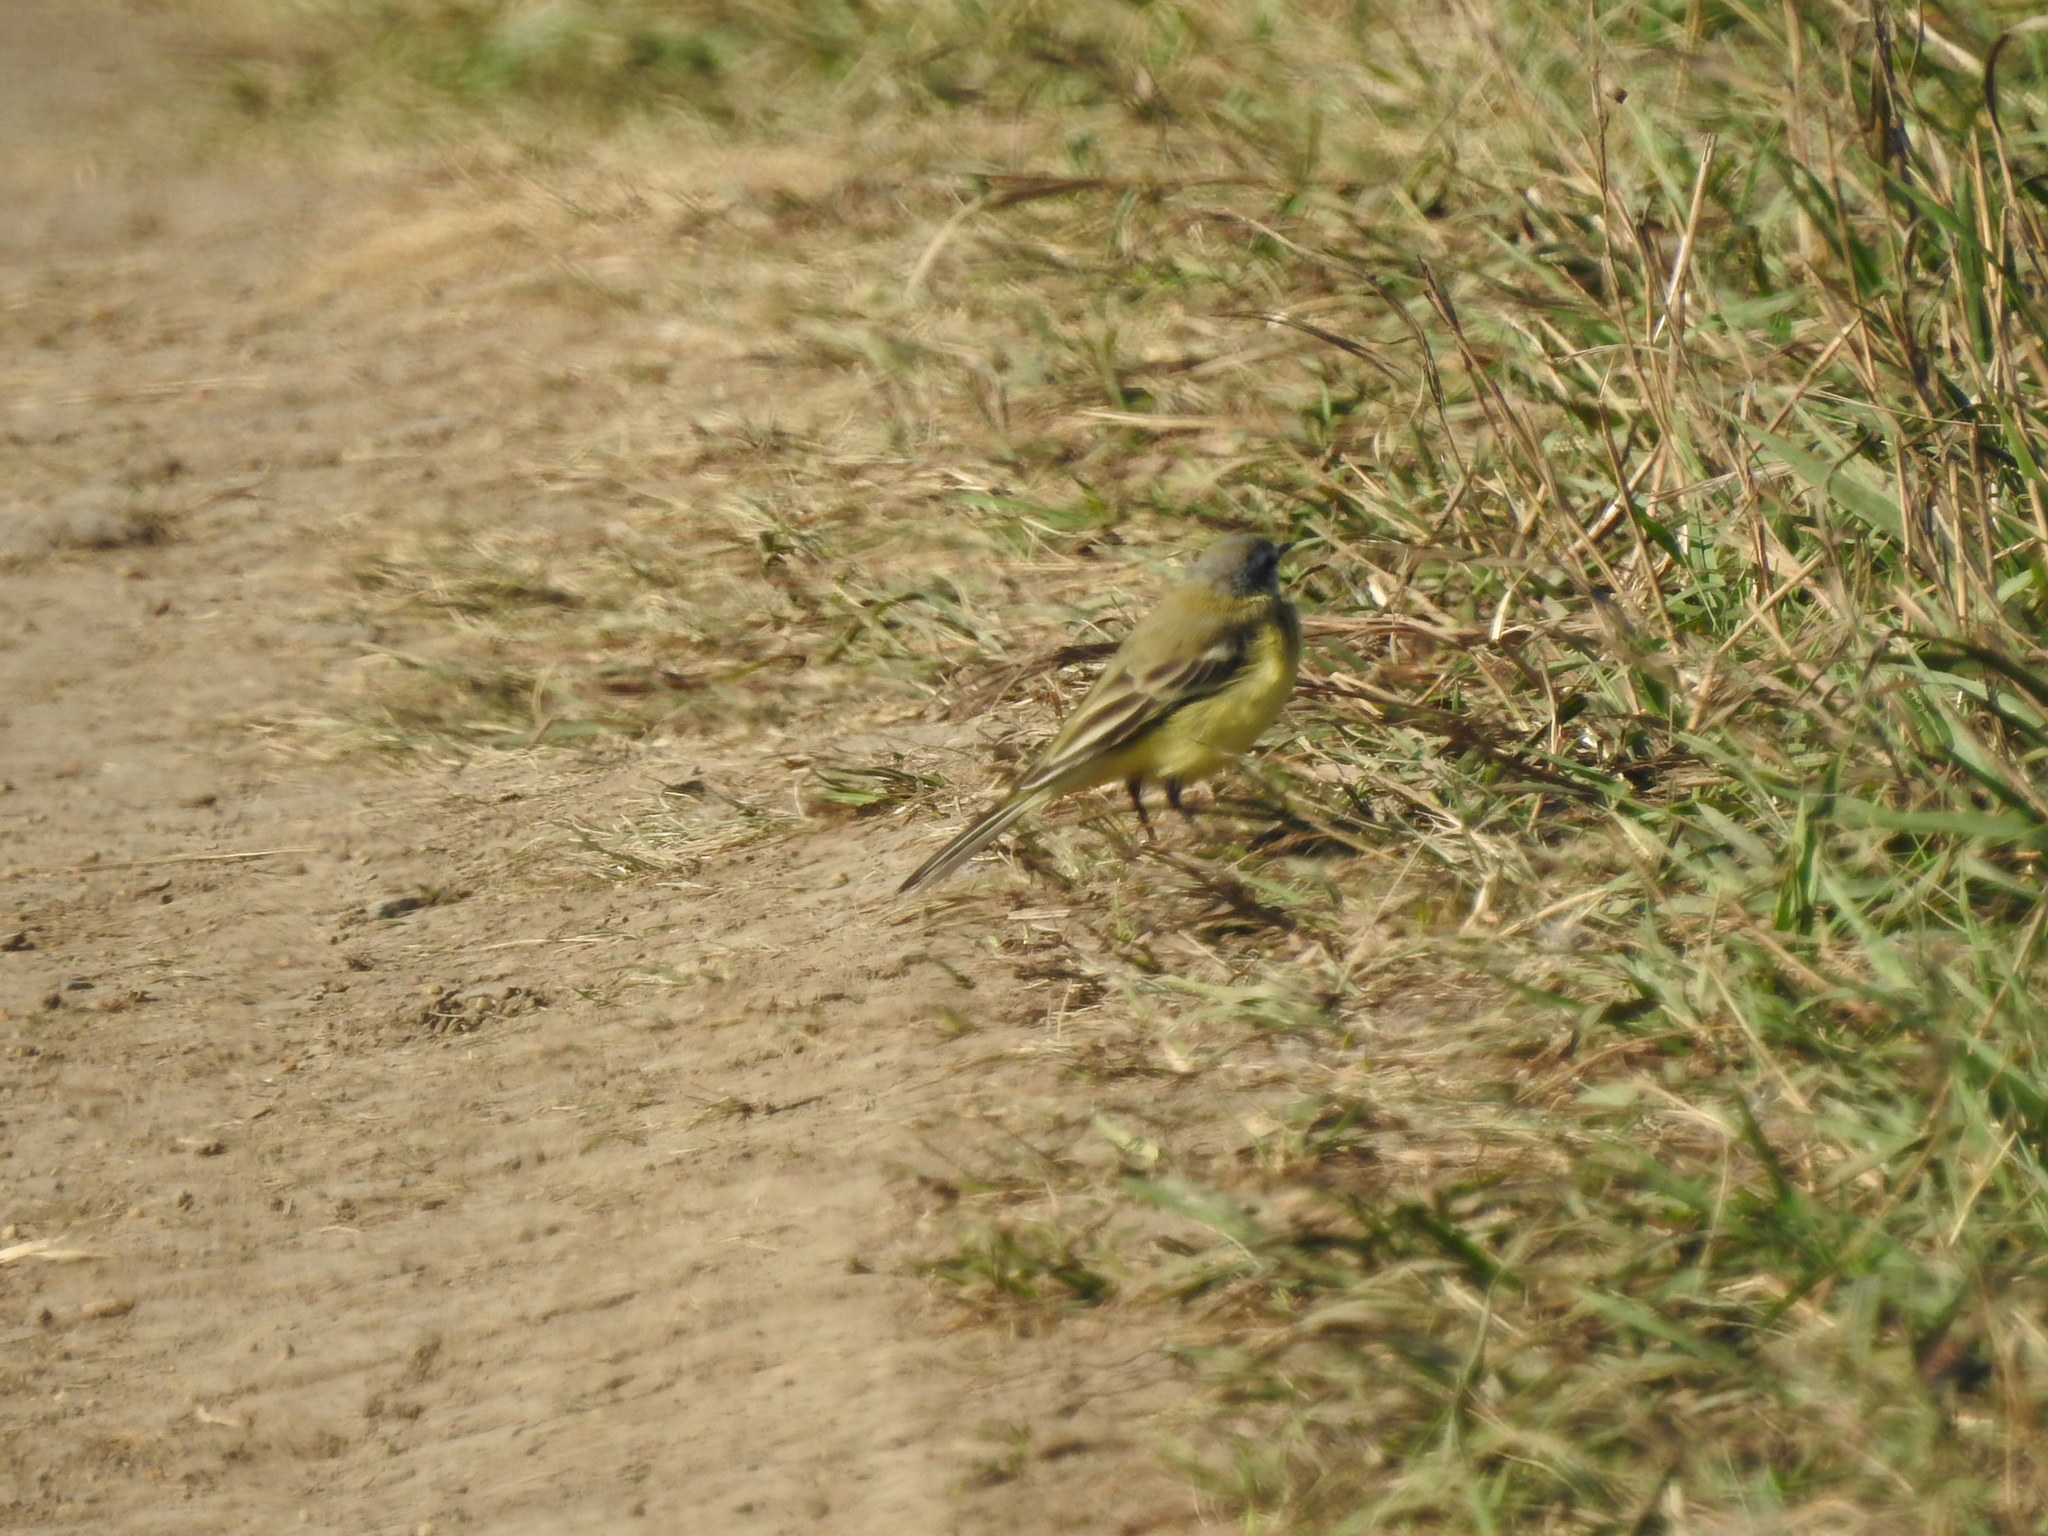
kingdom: Animalia
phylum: Chordata
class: Aves
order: Passeriformes
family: Motacillidae
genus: Motacilla
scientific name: Motacilla flava
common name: Western yellow wagtail
